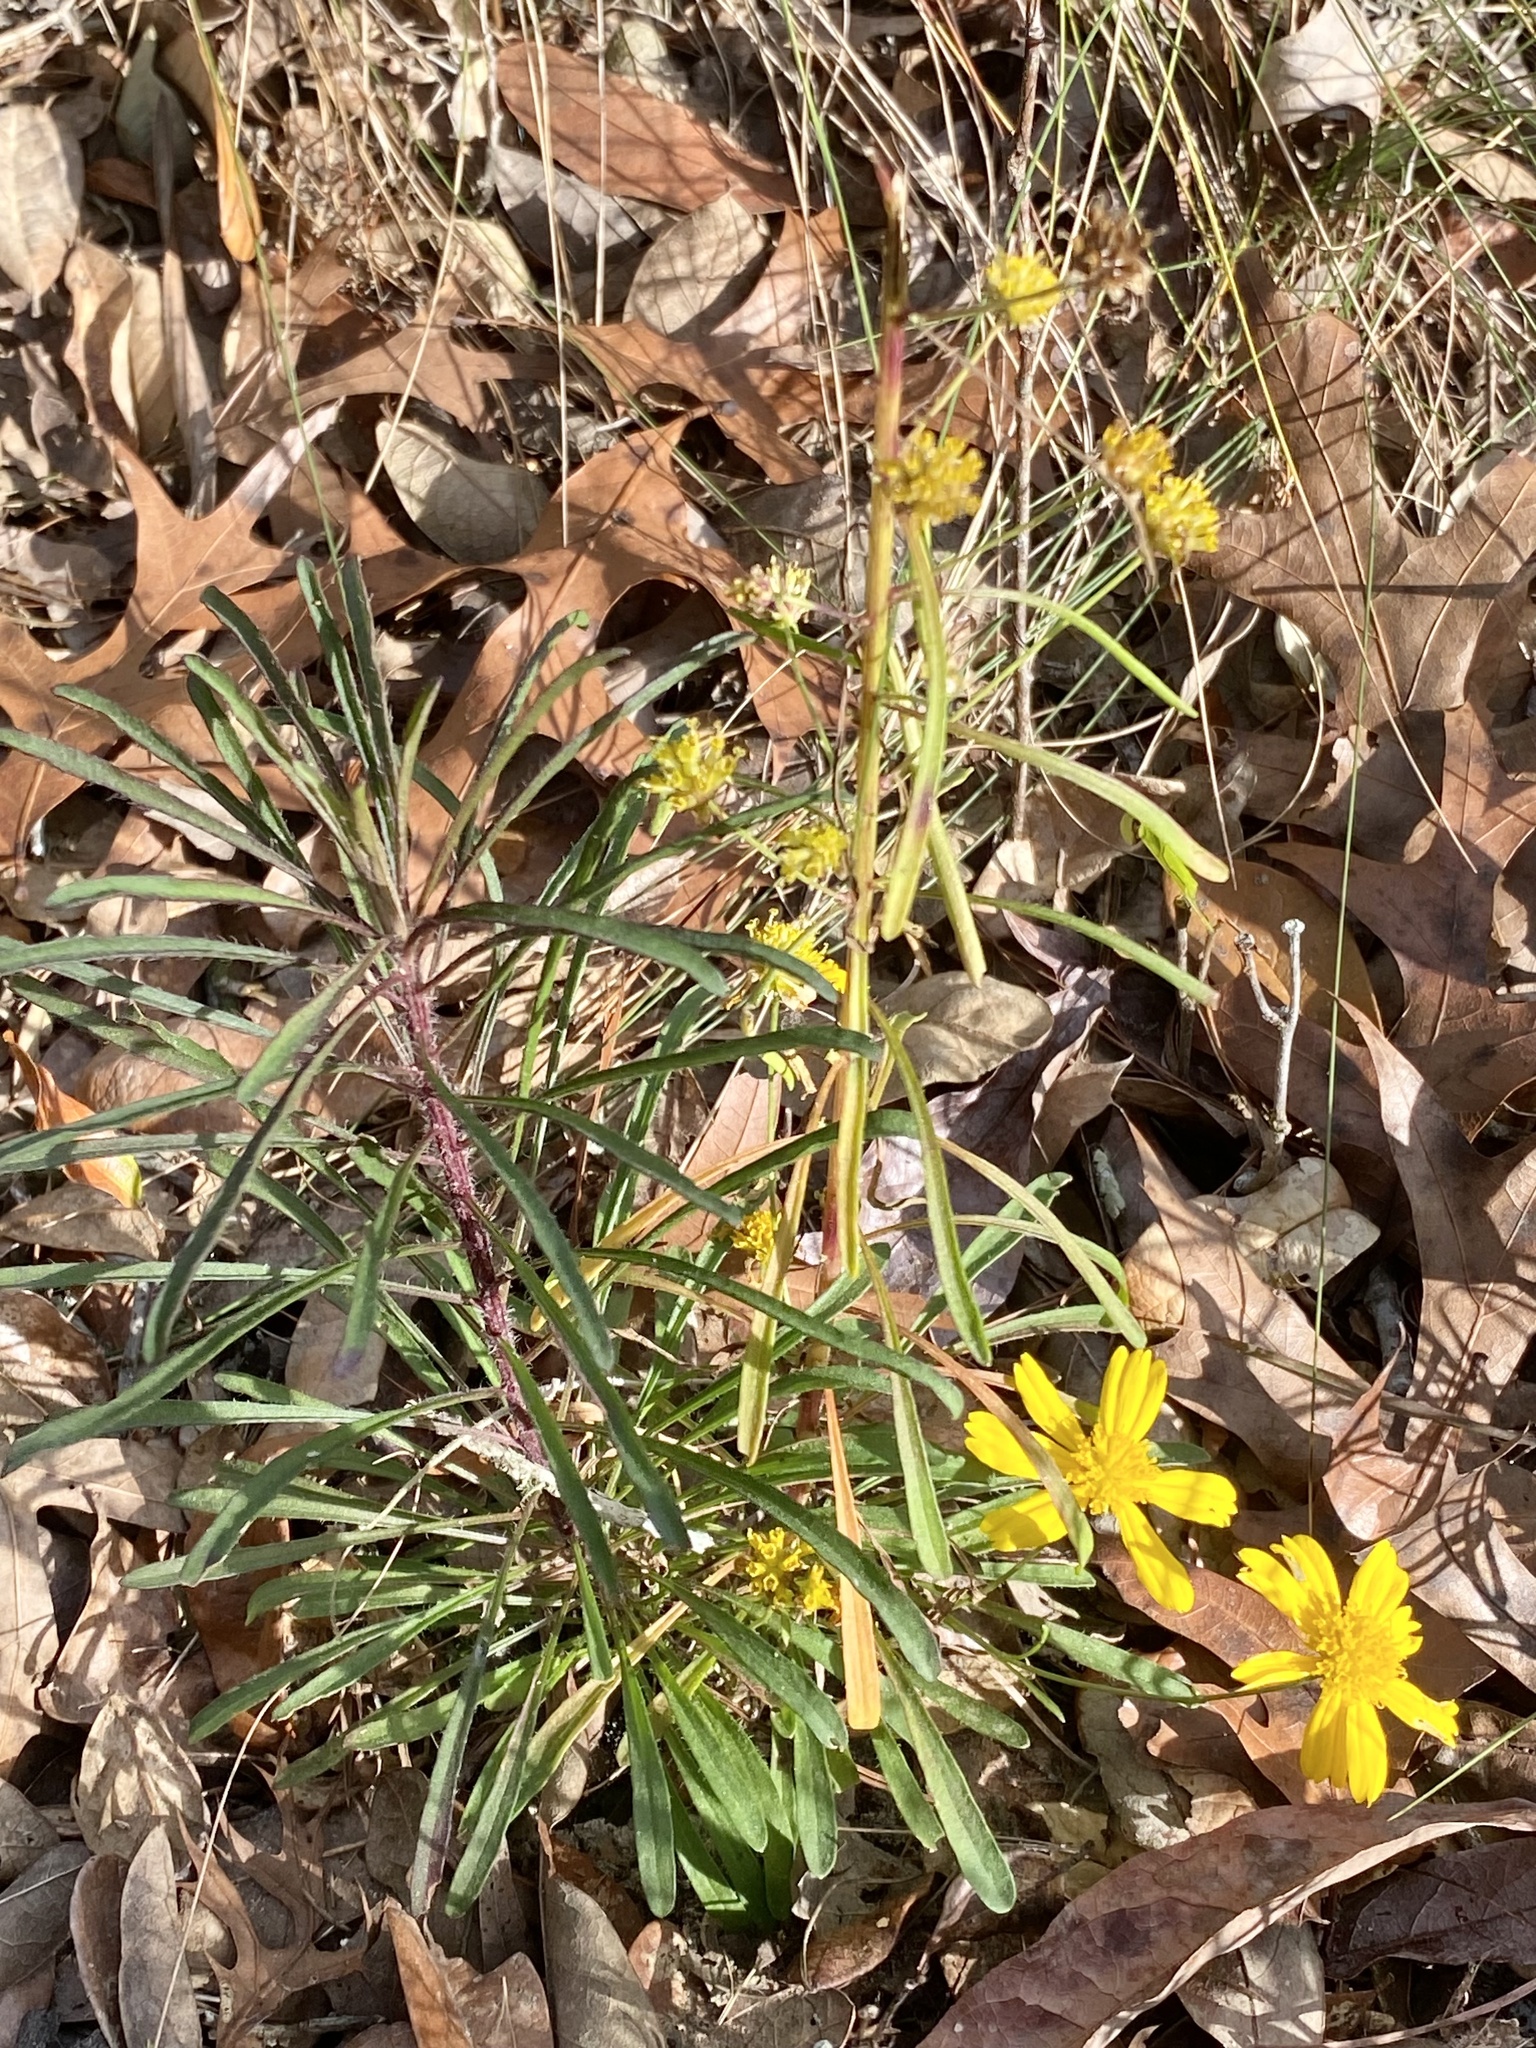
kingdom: Plantae
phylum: Tracheophyta
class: Magnoliopsida
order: Asterales
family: Asteraceae
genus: Balduina
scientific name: Balduina angustifolia
